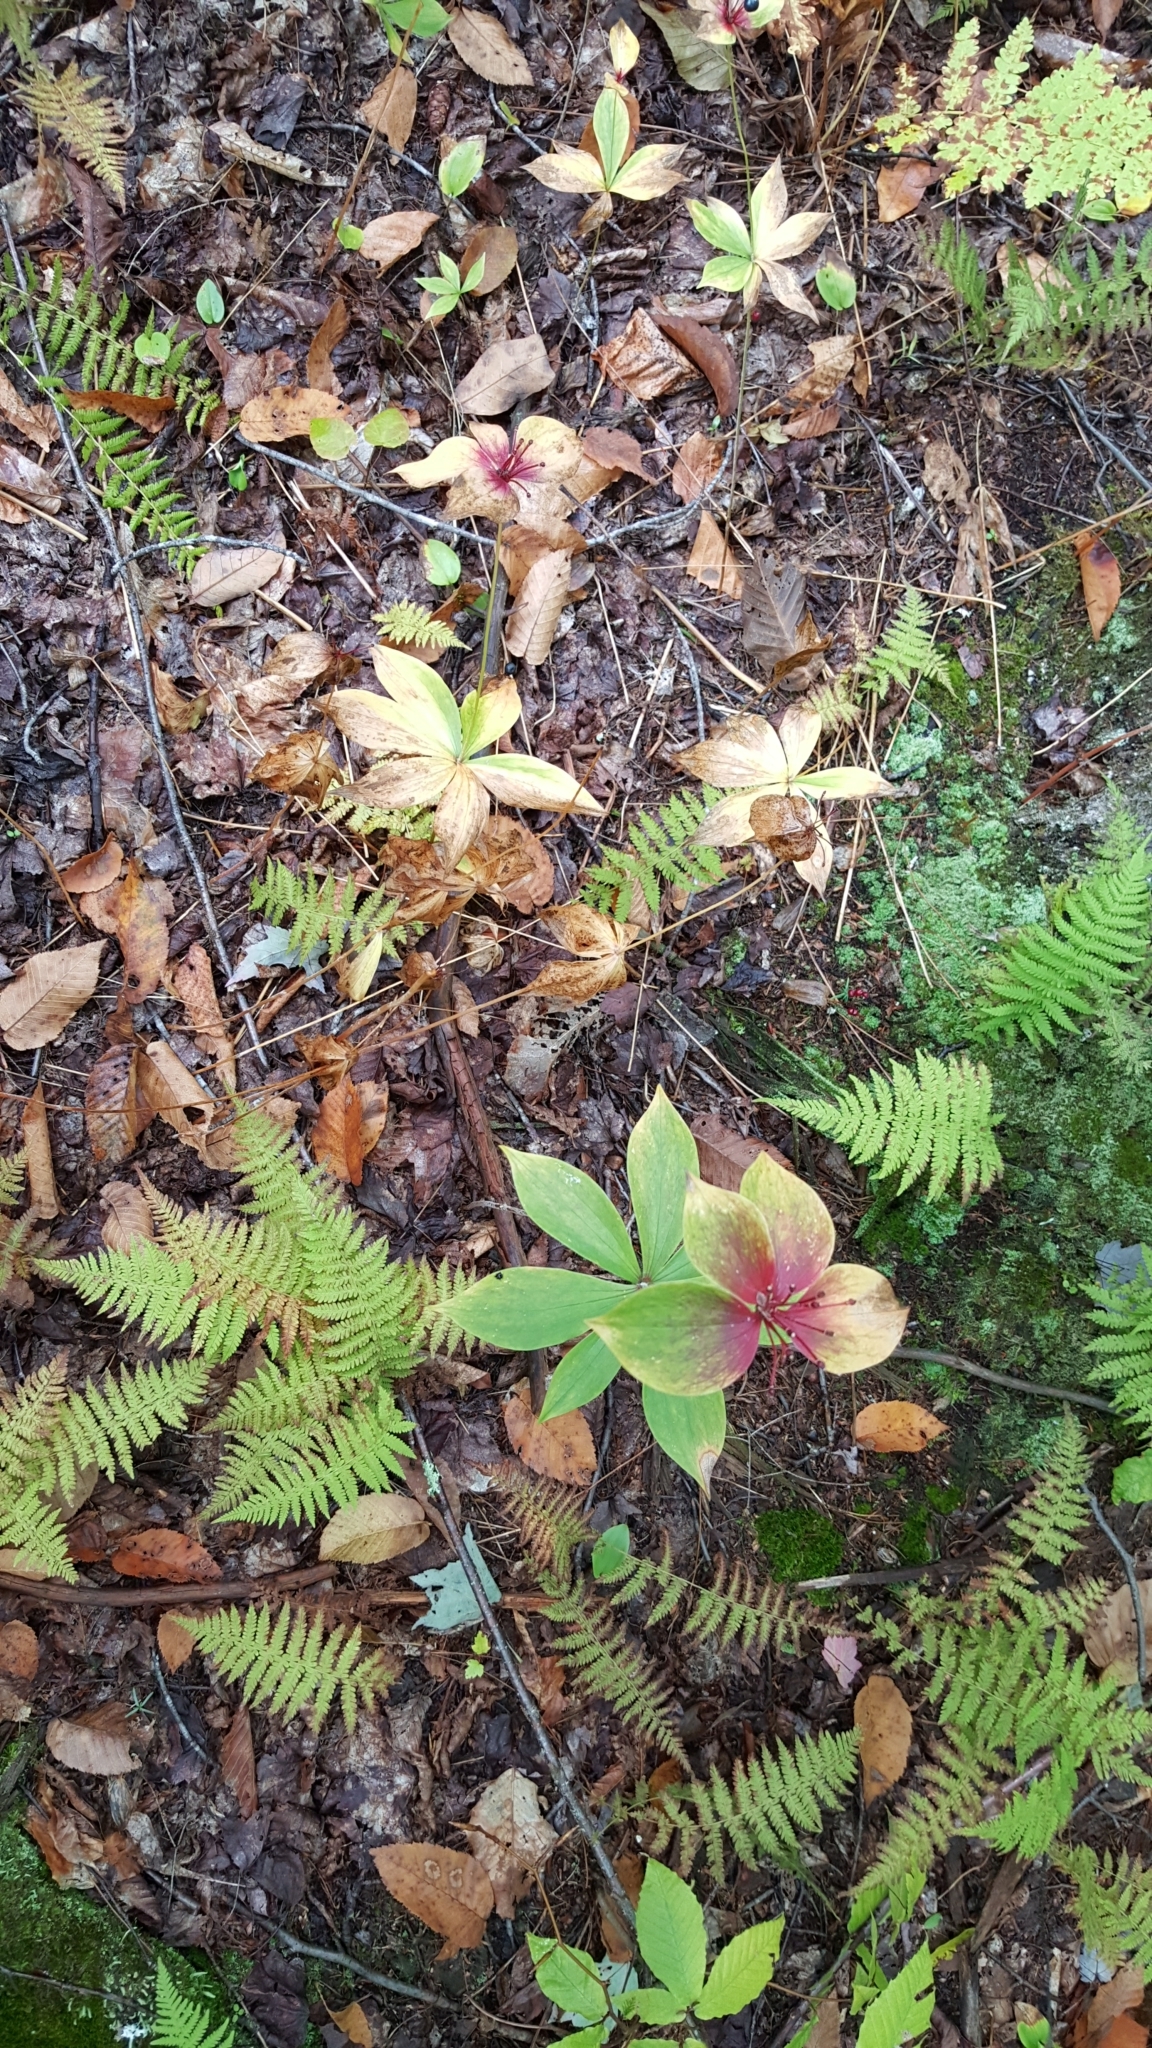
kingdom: Plantae
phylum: Tracheophyta
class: Liliopsida
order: Liliales
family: Liliaceae
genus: Medeola
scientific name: Medeola virginiana
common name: Indian cucumber-root
